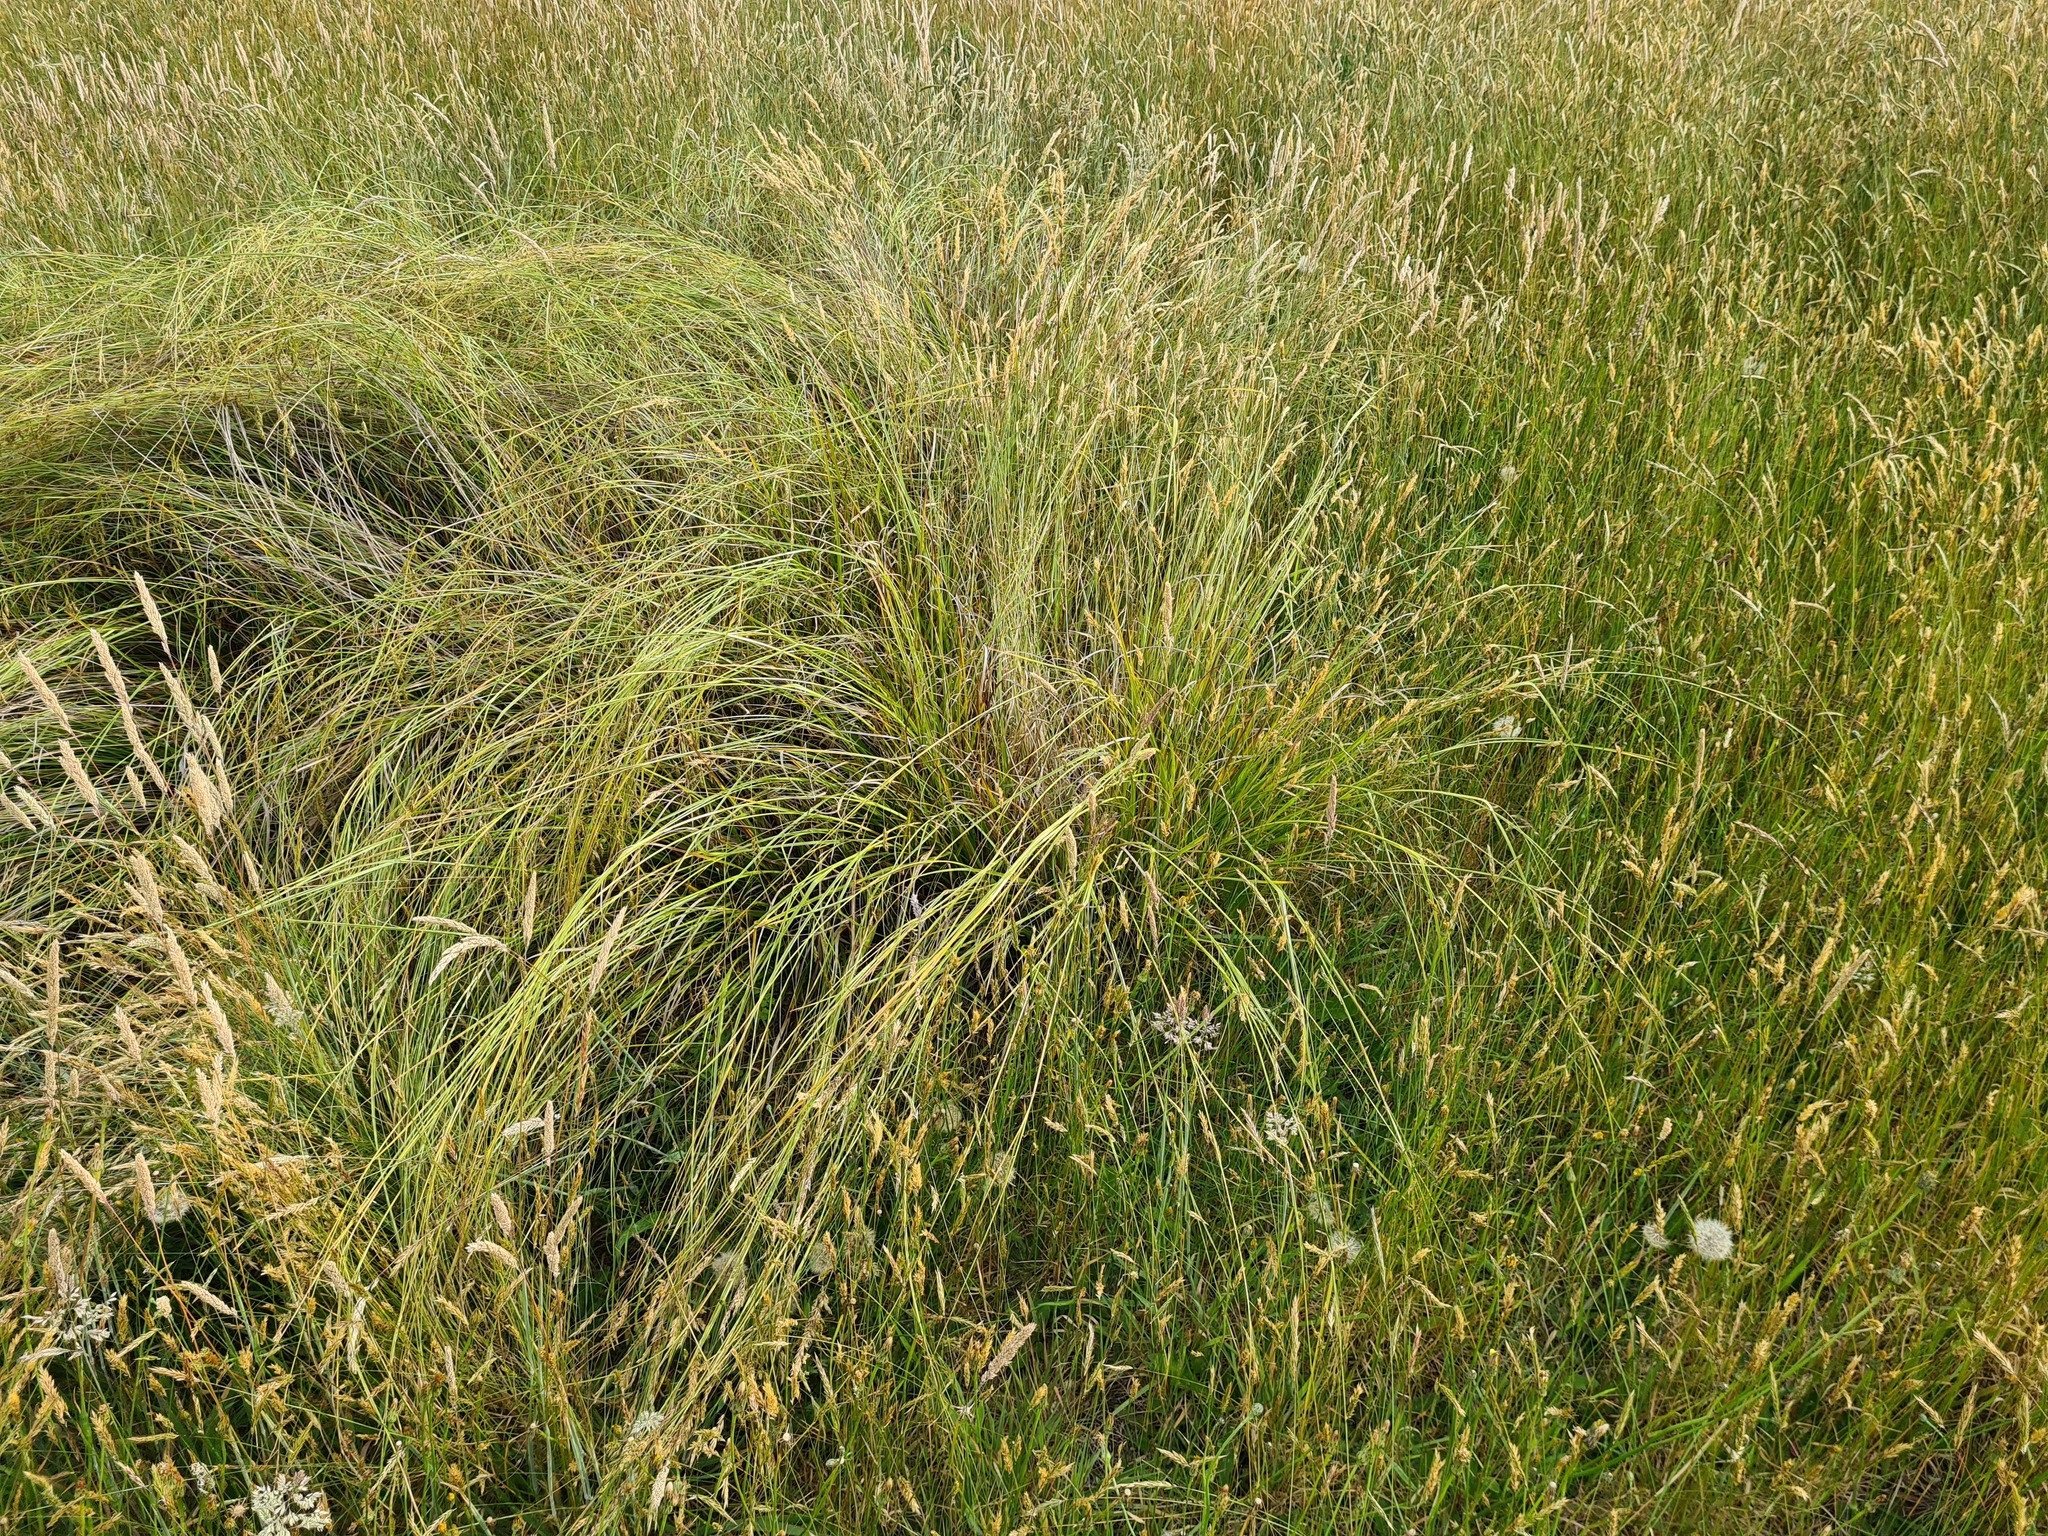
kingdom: Plantae
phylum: Tracheophyta
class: Liliopsida
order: Poales
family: Cyperaceae
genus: Carex
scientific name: Carex iynx
